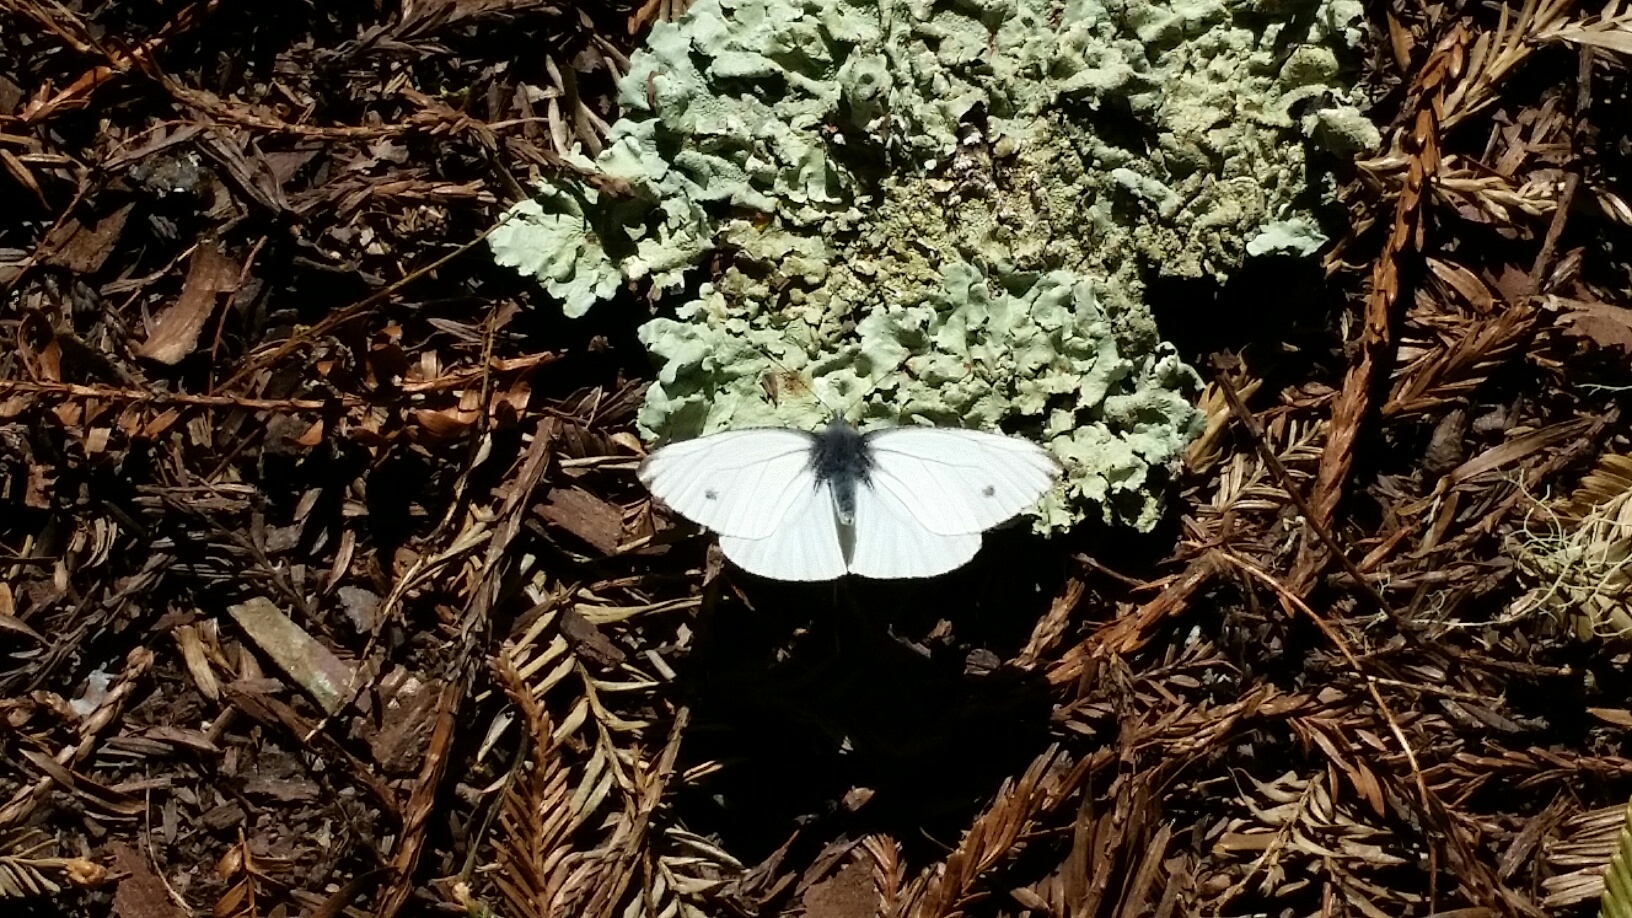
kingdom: Animalia
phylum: Arthropoda
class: Insecta
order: Lepidoptera
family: Pieridae
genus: Pieris
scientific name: Pieris marginalis
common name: Margined white
